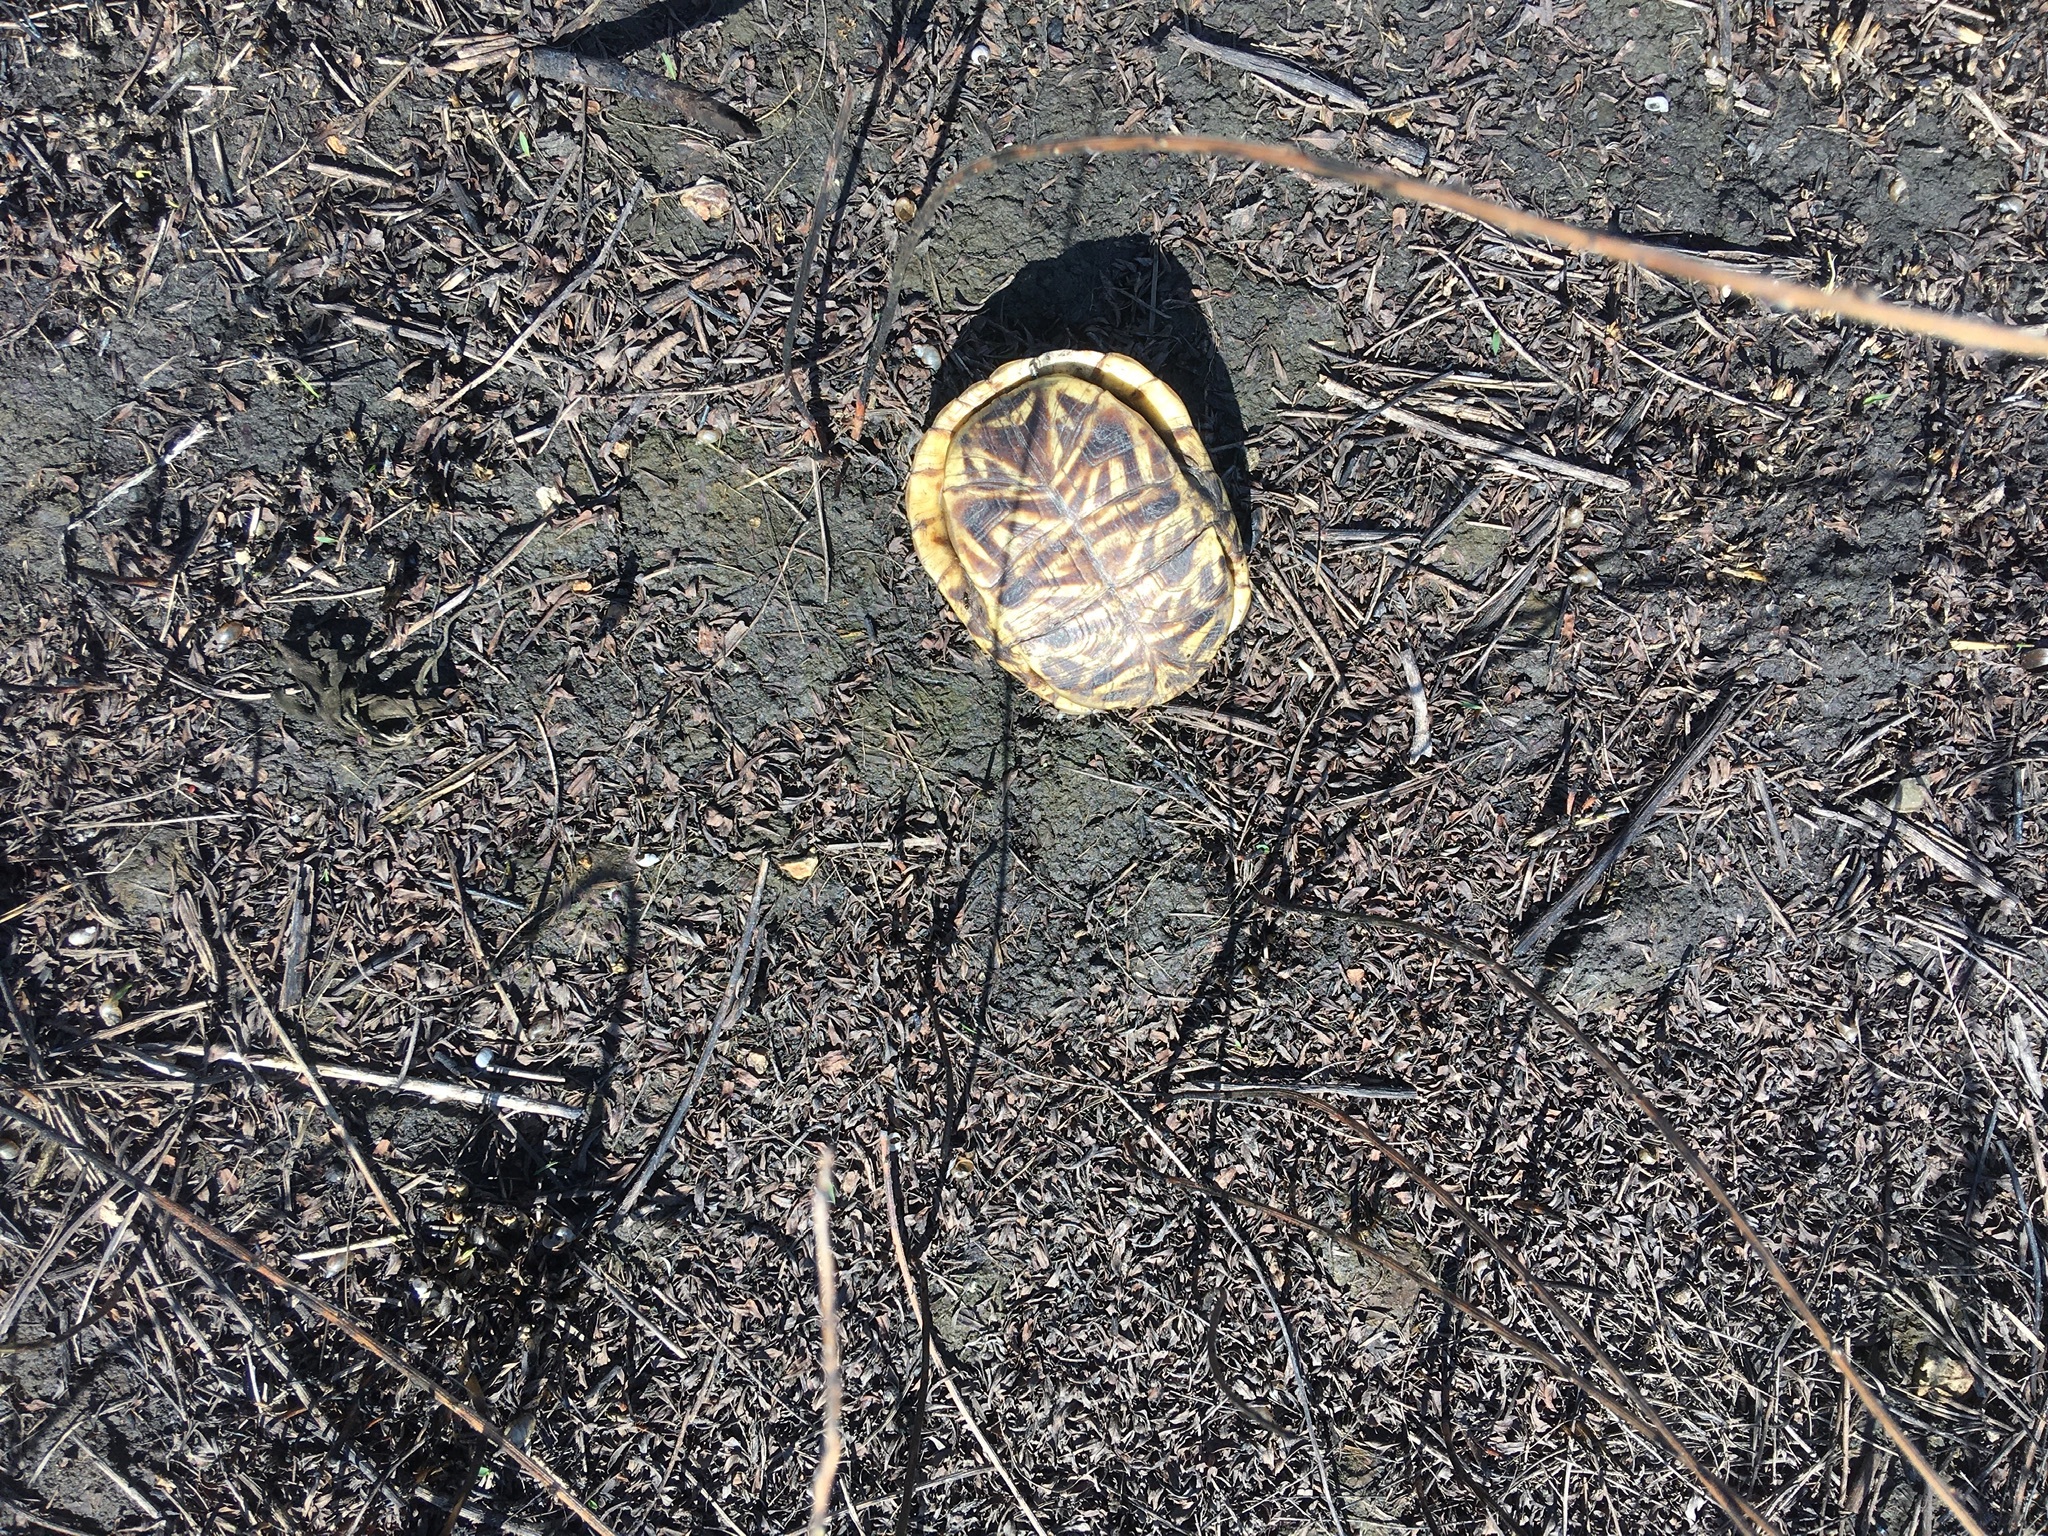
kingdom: Animalia
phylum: Chordata
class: Testudines
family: Emydidae
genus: Terrapene
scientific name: Terrapene ornata
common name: Western box turtle
